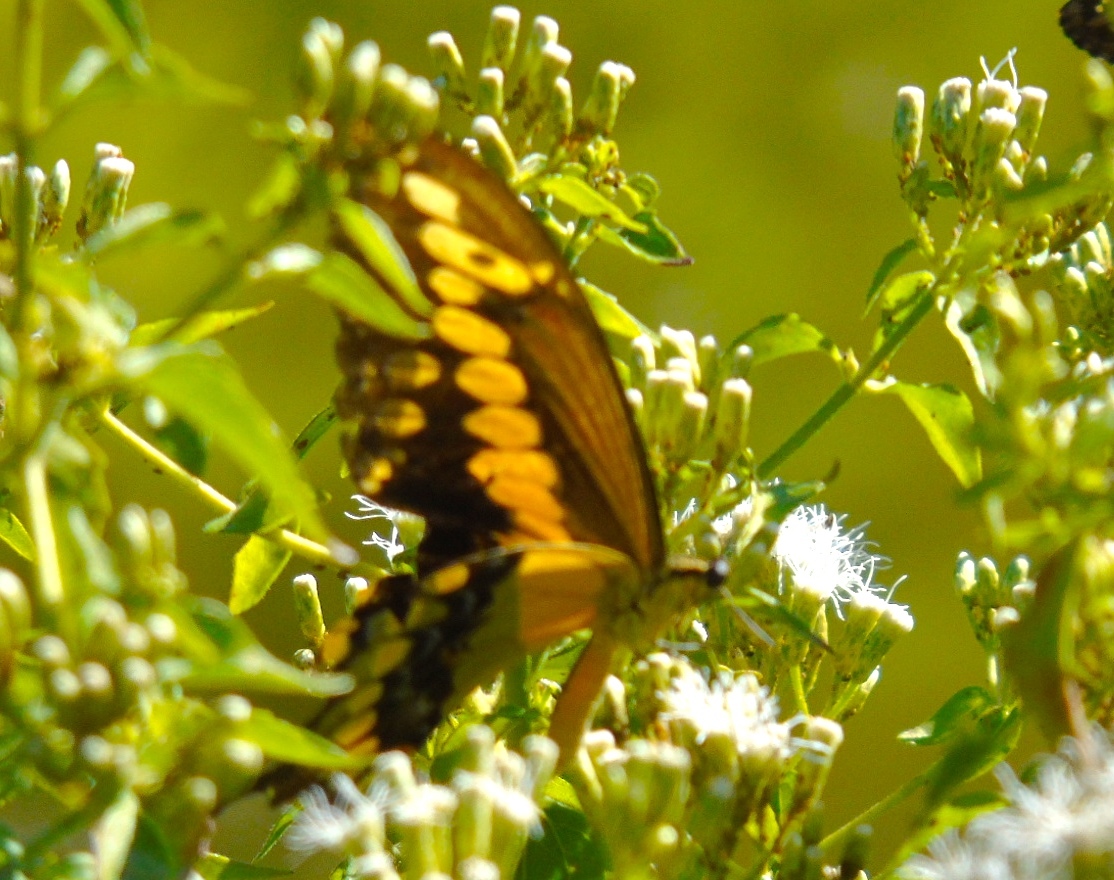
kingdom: Animalia
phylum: Arthropoda
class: Insecta
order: Lepidoptera
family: Papilionidae
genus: Heraclides
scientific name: Heraclides
